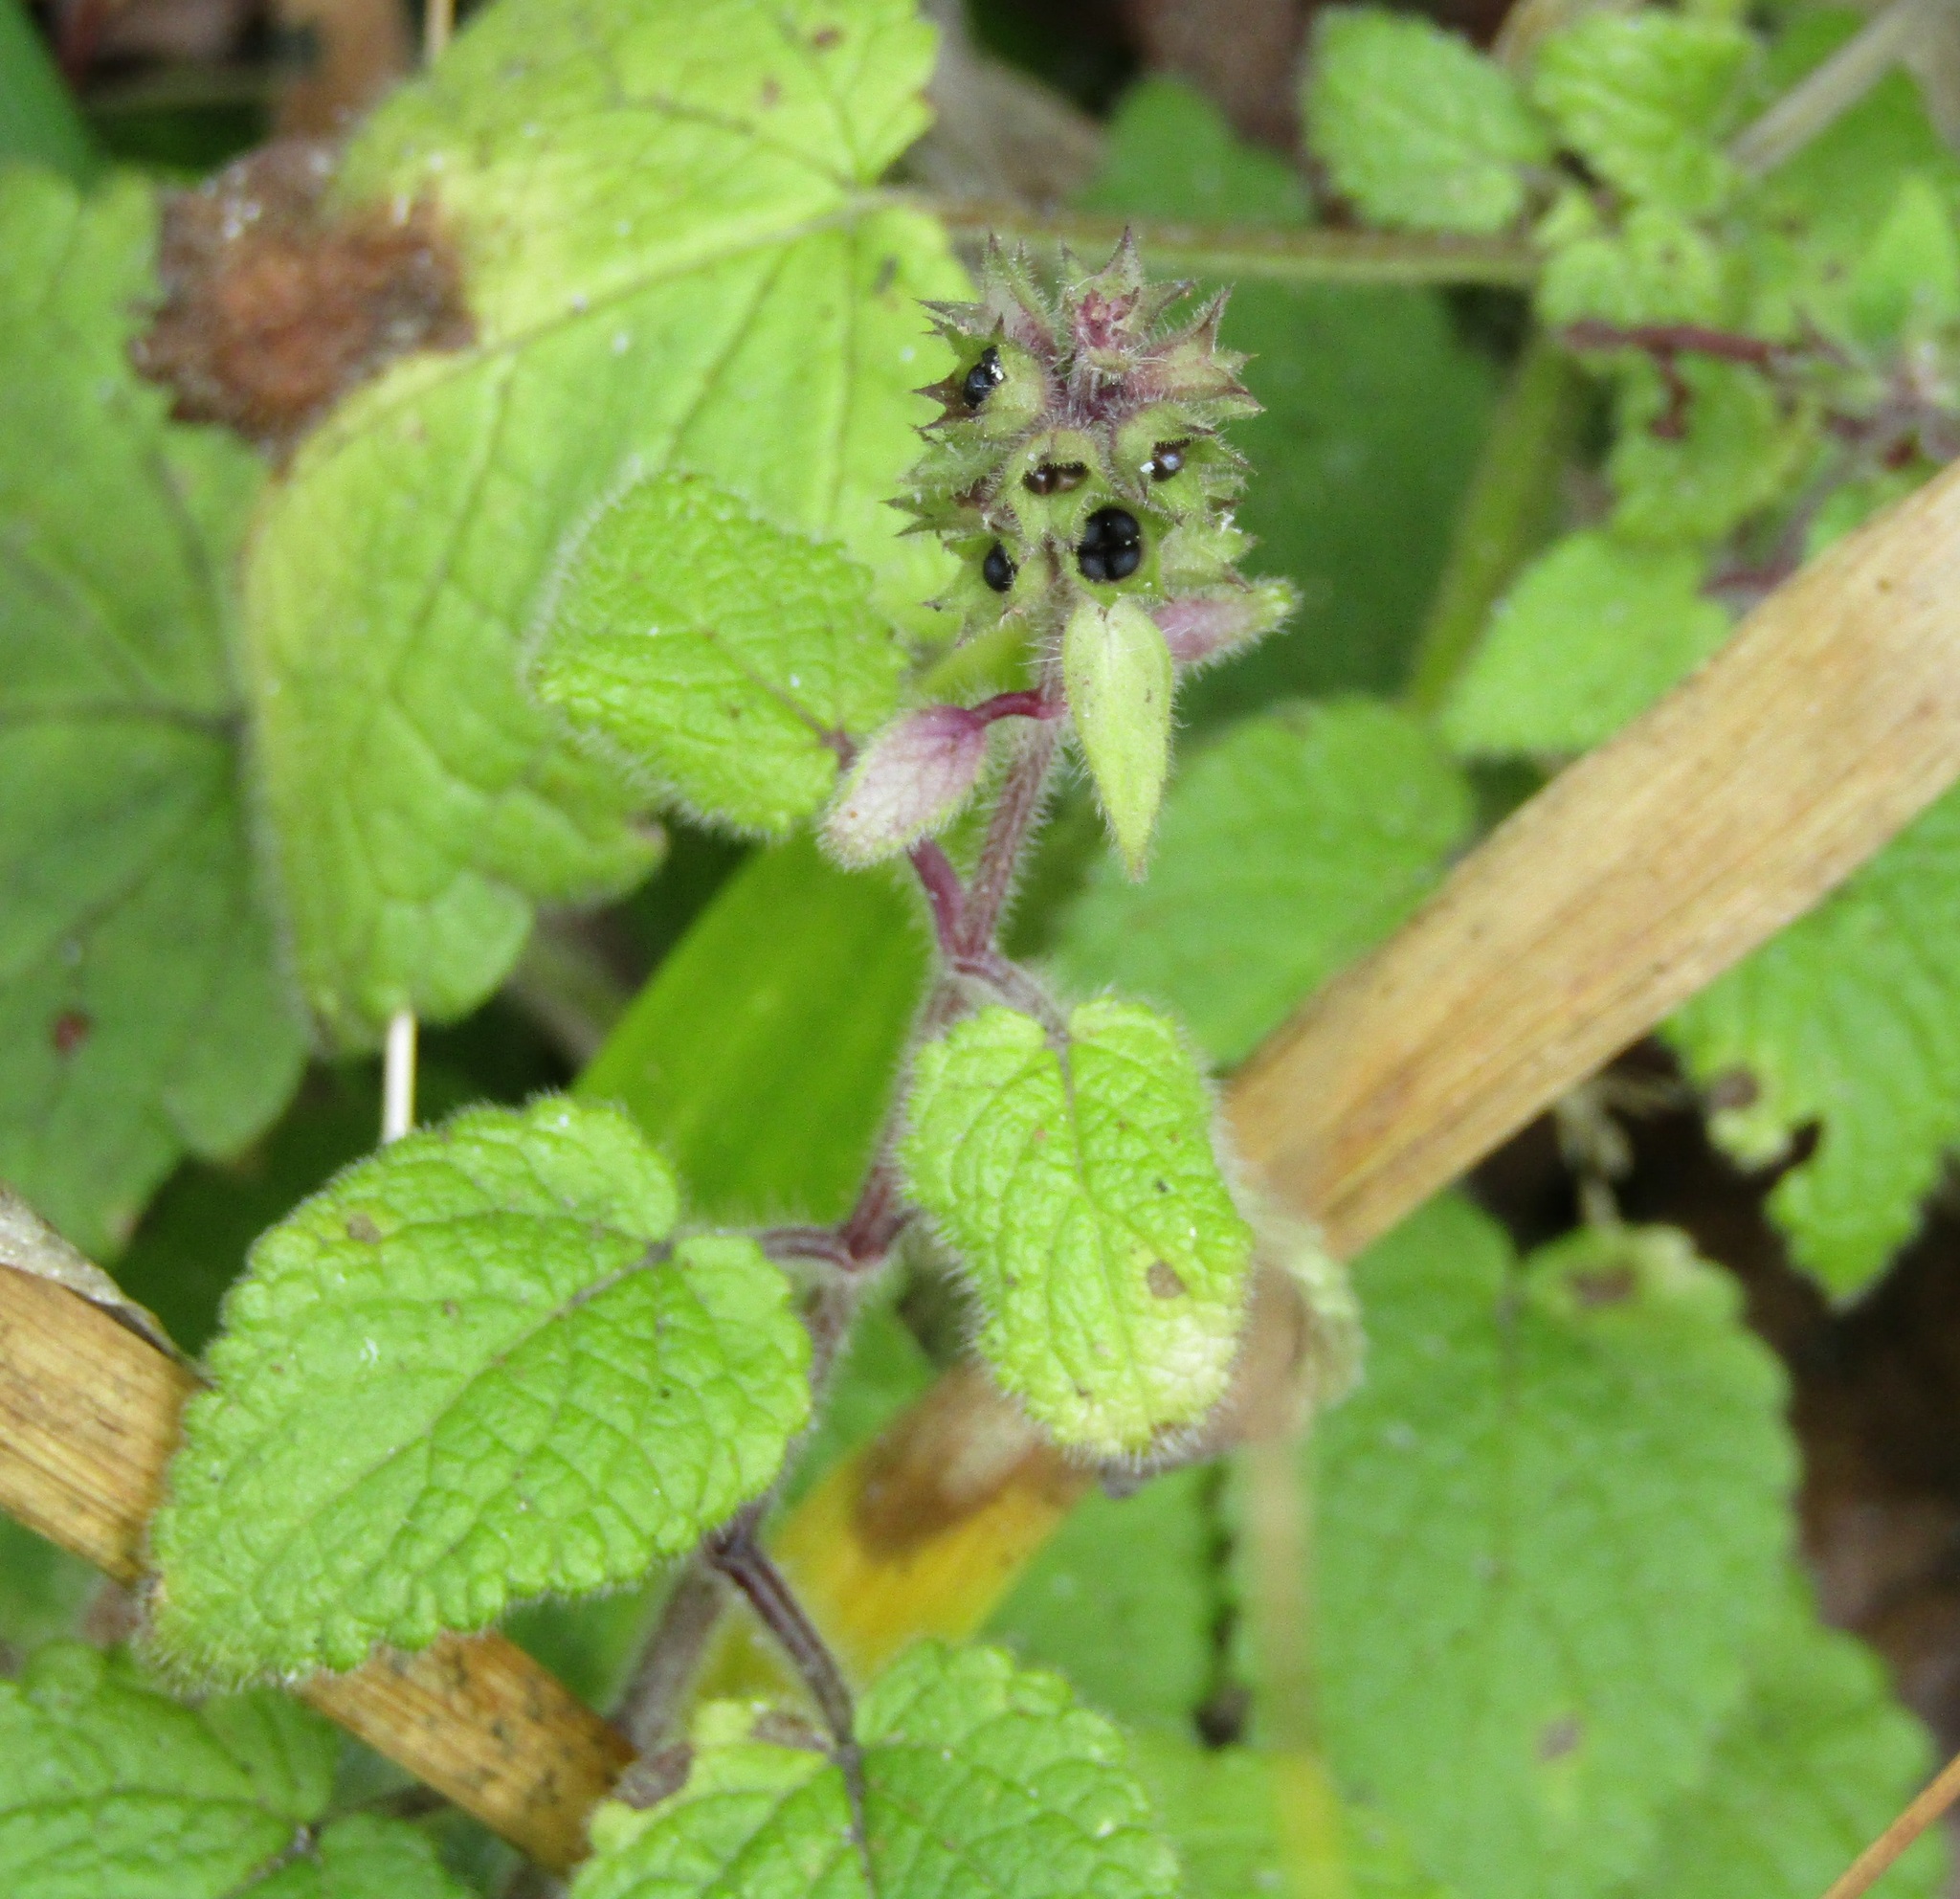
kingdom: Plantae
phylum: Tracheophyta
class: Magnoliopsida
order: Lamiales
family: Lamiaceae
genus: Stachys
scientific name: Stachys sylvatica
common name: Hedge woundwort
